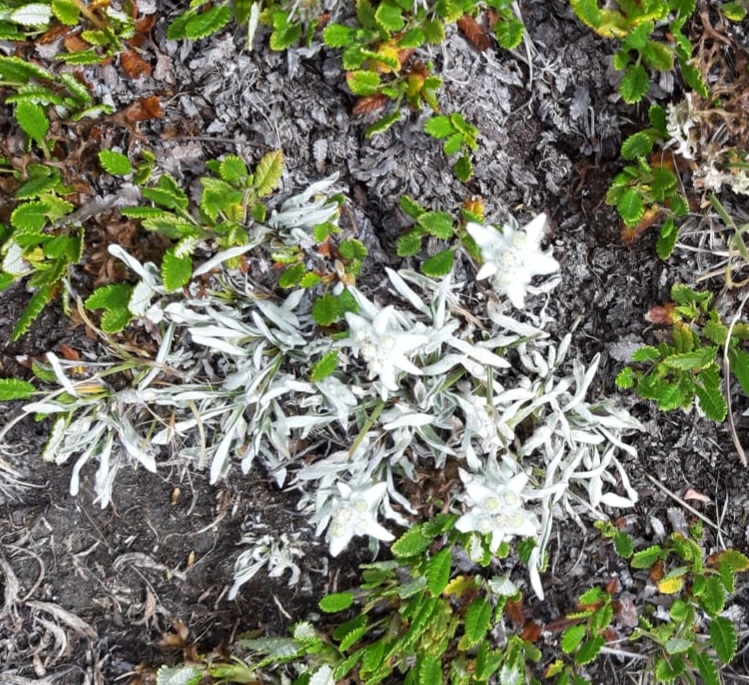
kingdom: Plantae
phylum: Tracheophyta
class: Magnoliopsida
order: Asterales
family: Asteraceae
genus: Leontopodium
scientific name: Leontopodium nivale
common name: Edelweiss
